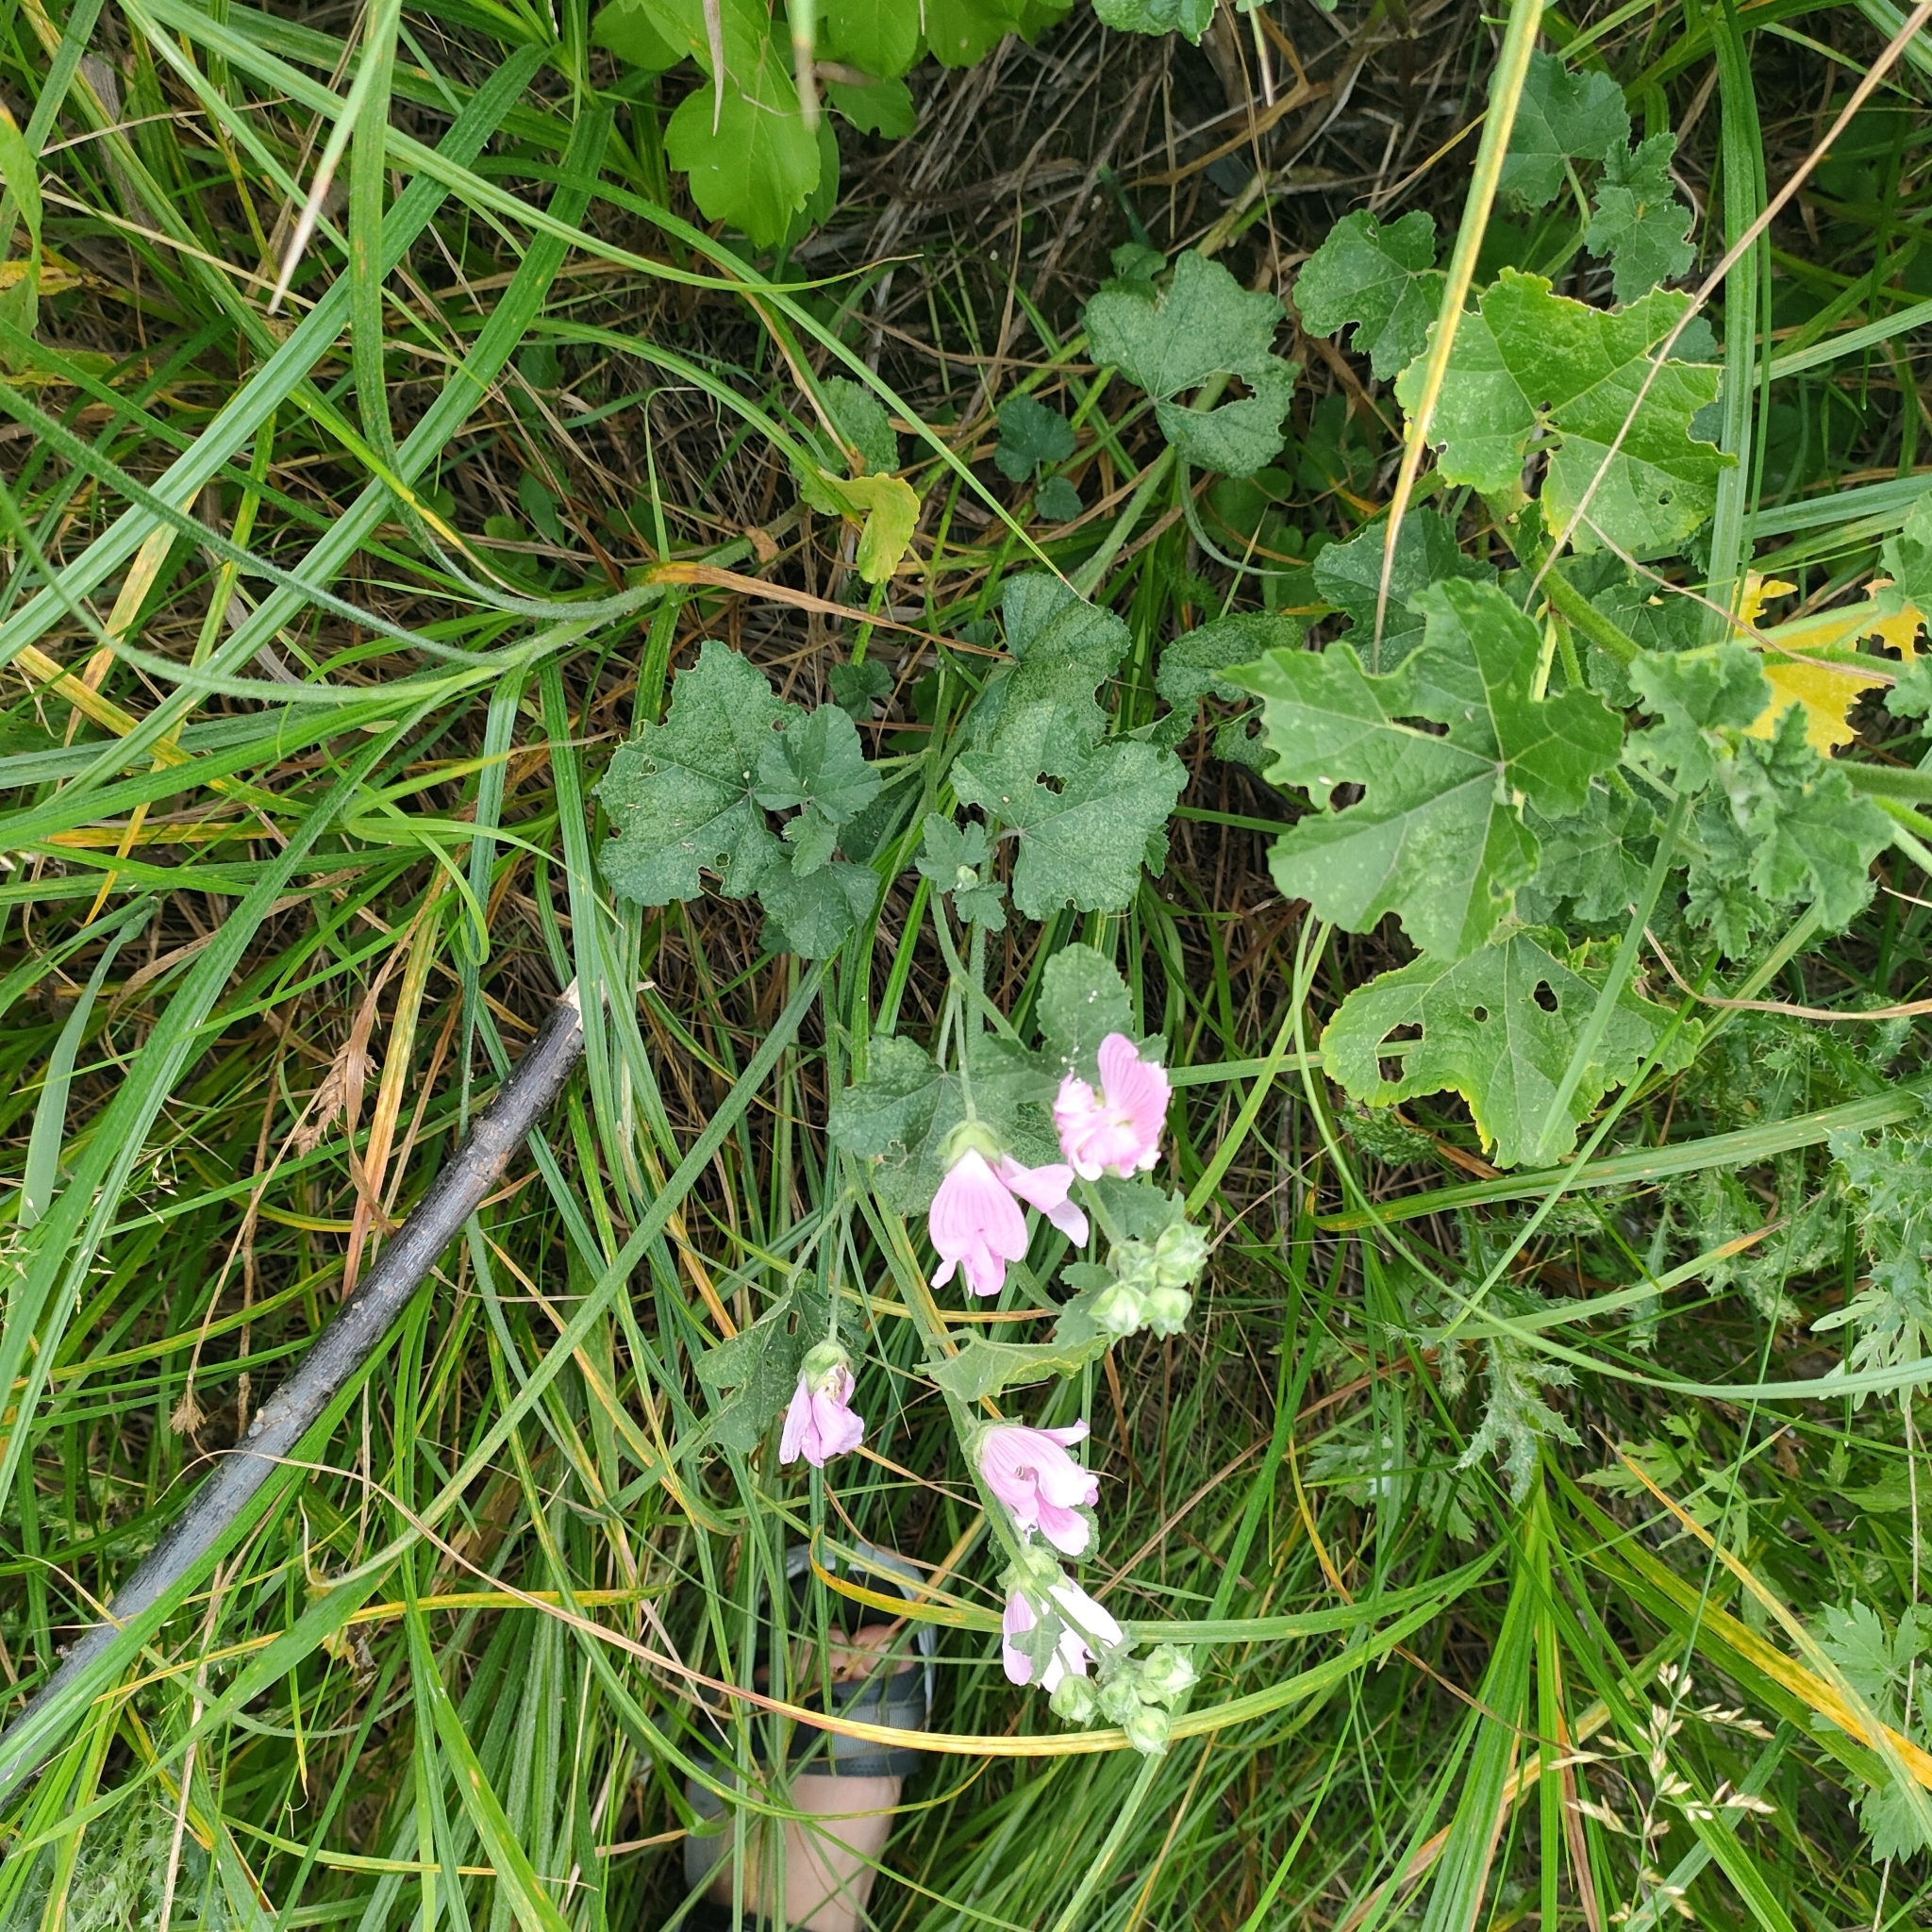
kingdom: Plantae
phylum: Tracheophyta
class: Magnoliopsida
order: Malvales
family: Malvaceae
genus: Malva
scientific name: Malva thuringiaca
